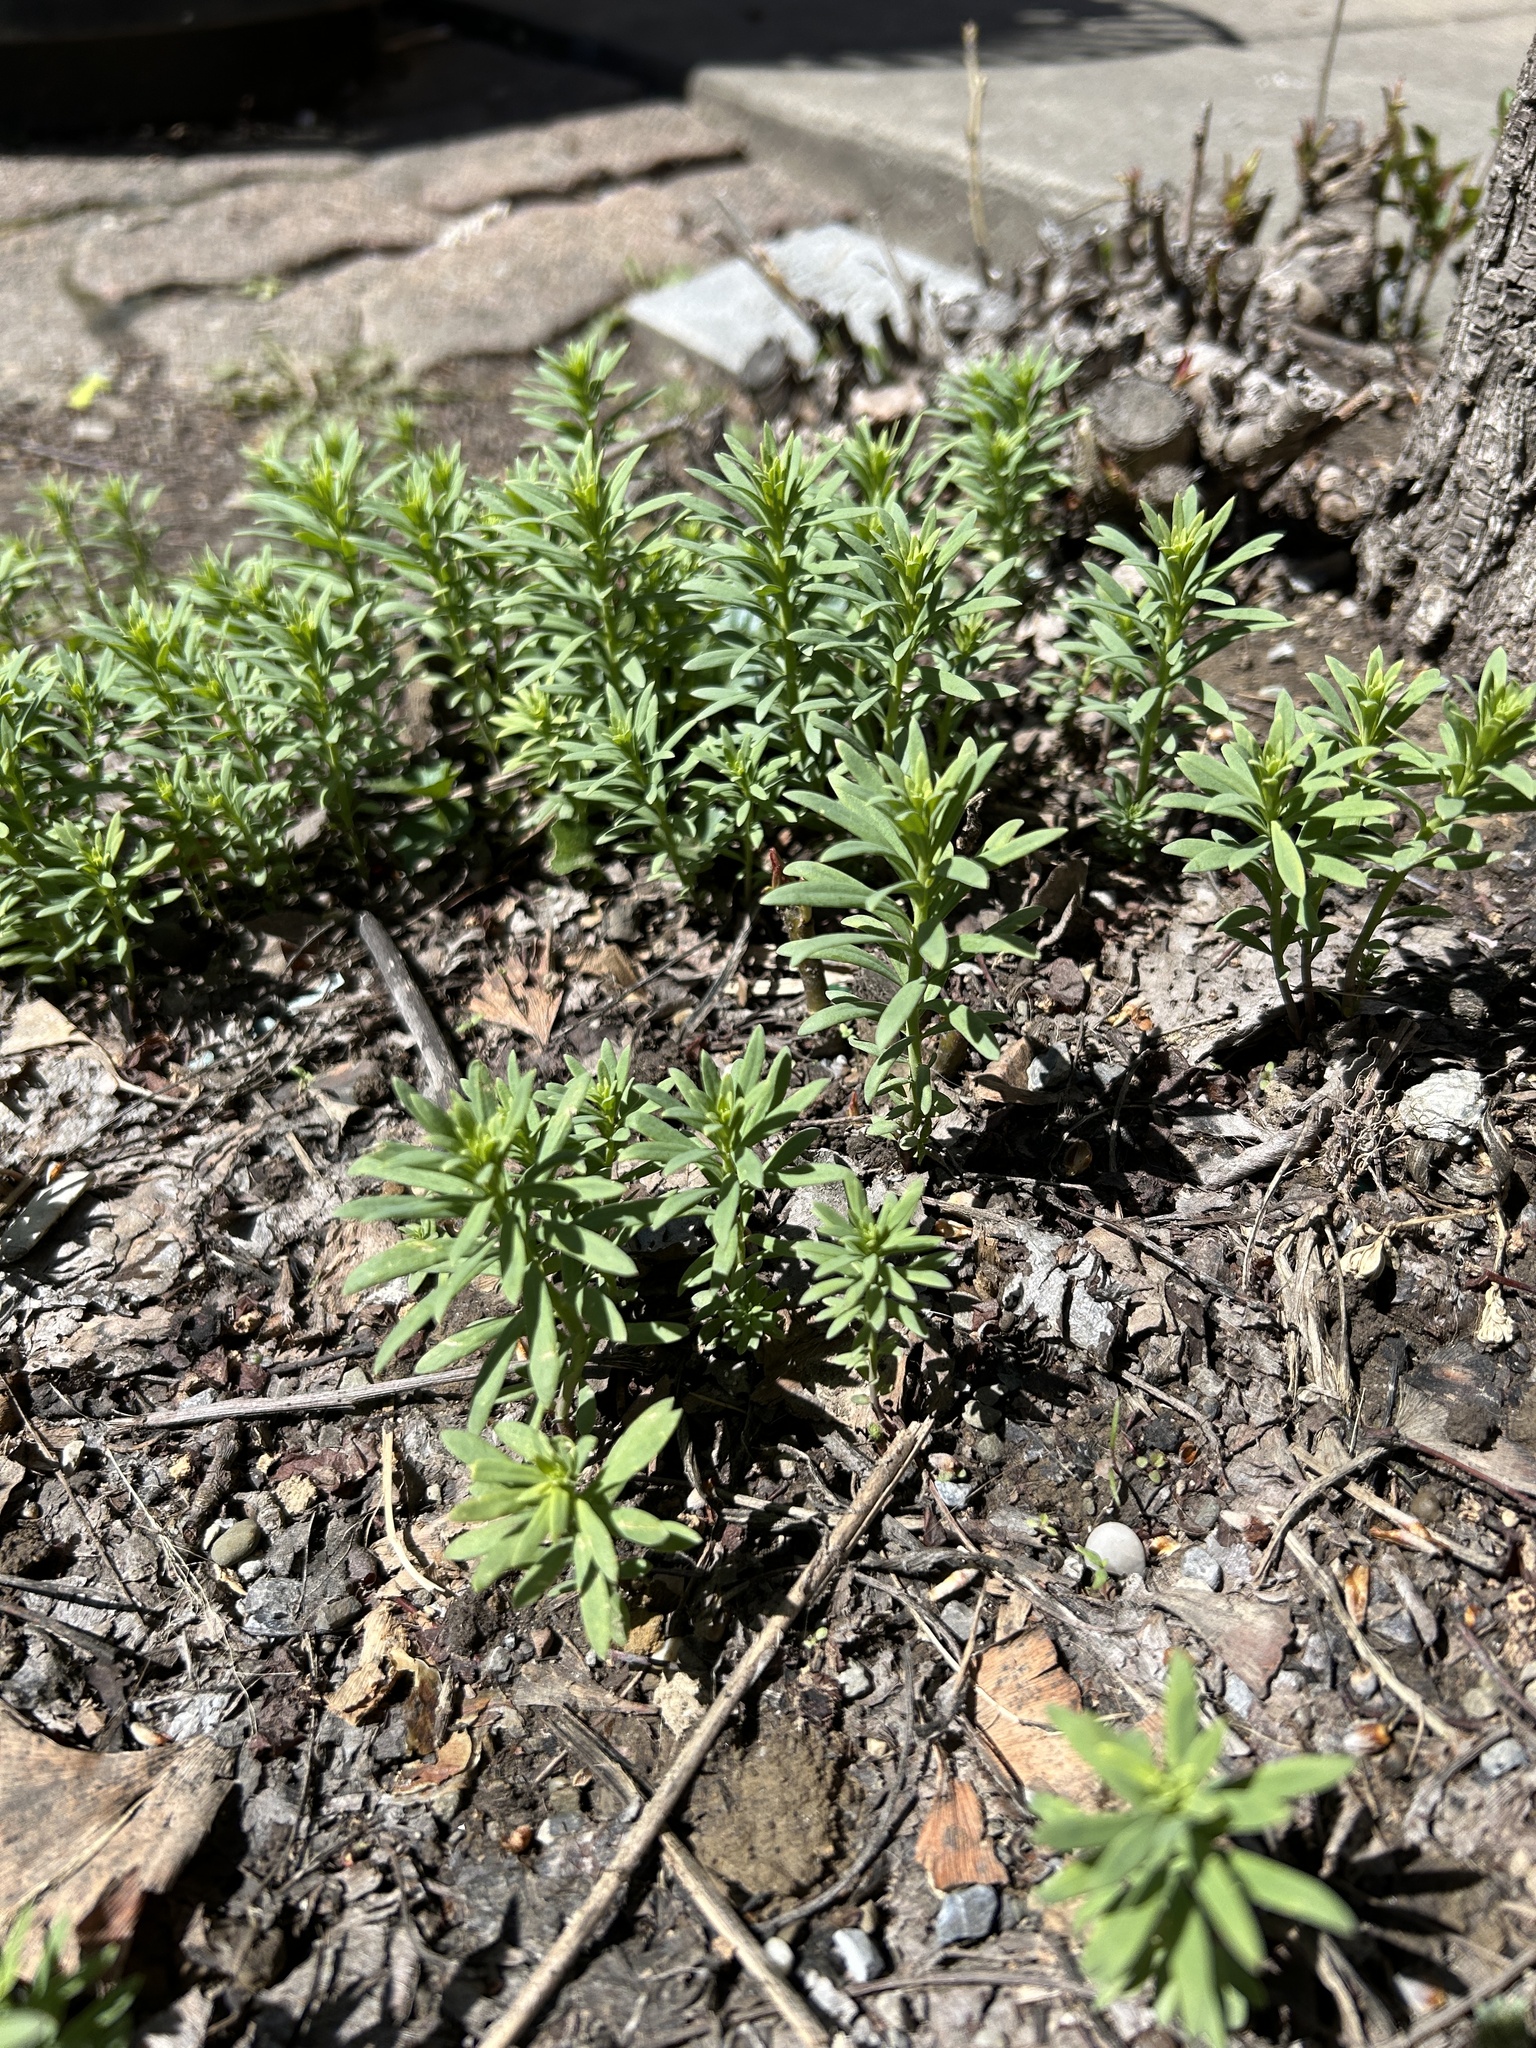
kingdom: Plantae
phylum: Tracheophyta
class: Magnoliopsida
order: Lamiales
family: Plantaginaceae
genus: Linaria
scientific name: Linaria vulgaris
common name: Butter and eggs
